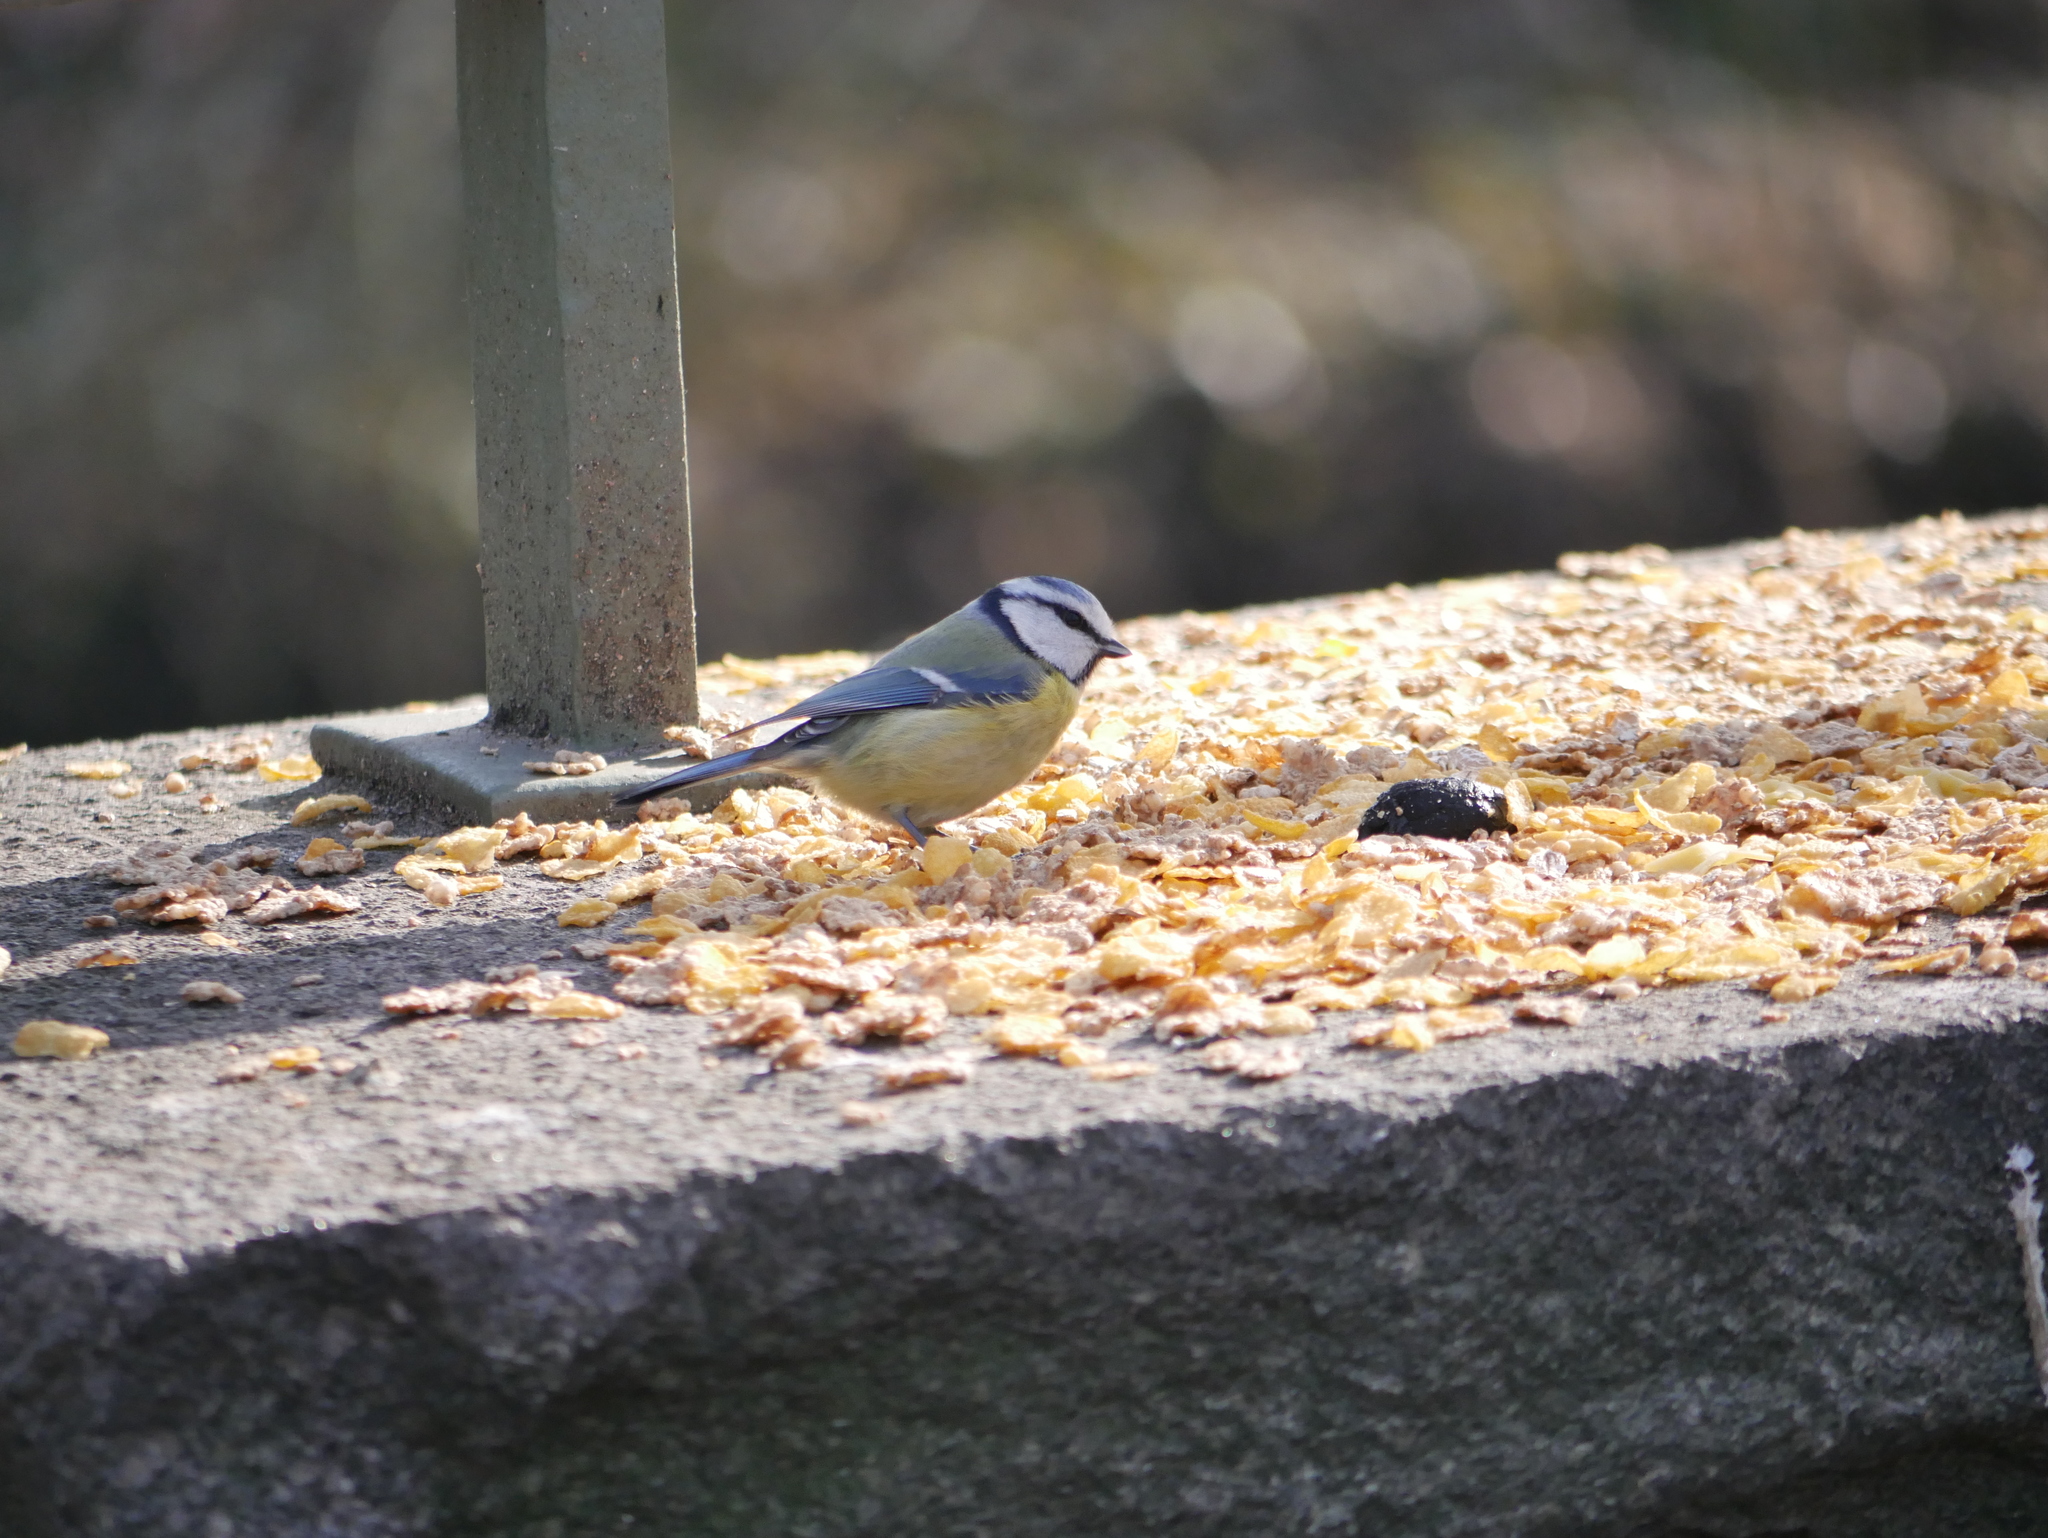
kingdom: Animalia
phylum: Chordata
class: Aves
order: Passeriformes
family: Paridae
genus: Cyanistes
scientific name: Cyanistes caeruleus
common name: Eurasian blue tit
